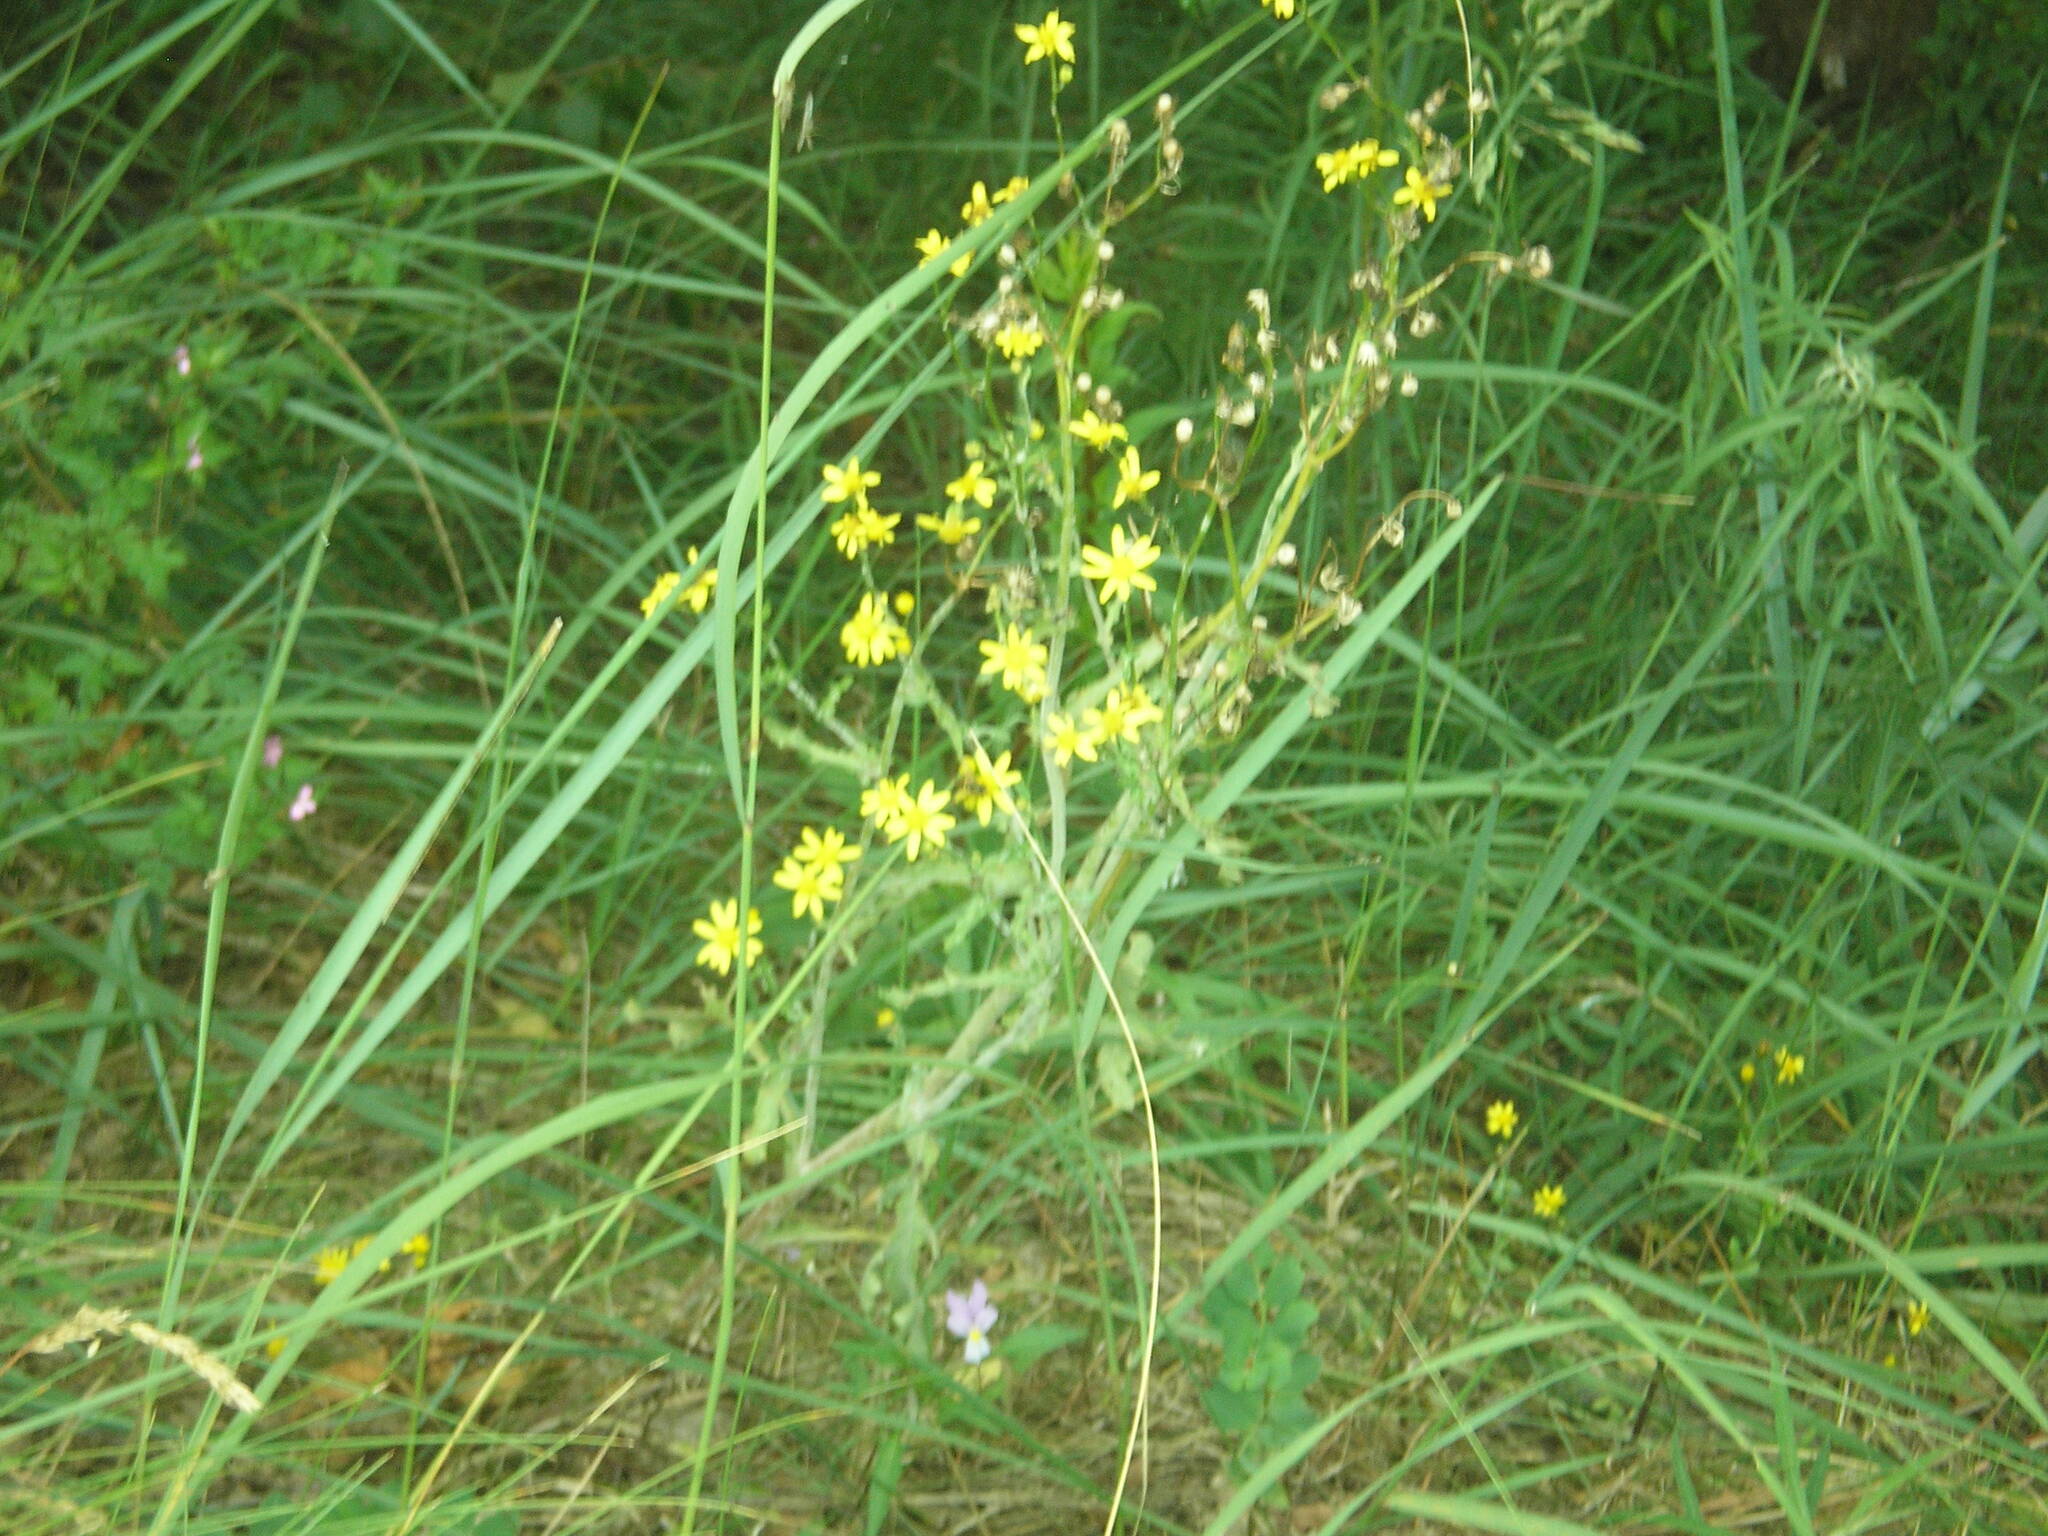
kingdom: Plantae
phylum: Tracheophyta
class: Magnoliopsida
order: Asterales
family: Asteraceae
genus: Senecio
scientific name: Senecio vernalis
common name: Eastern groundsel
